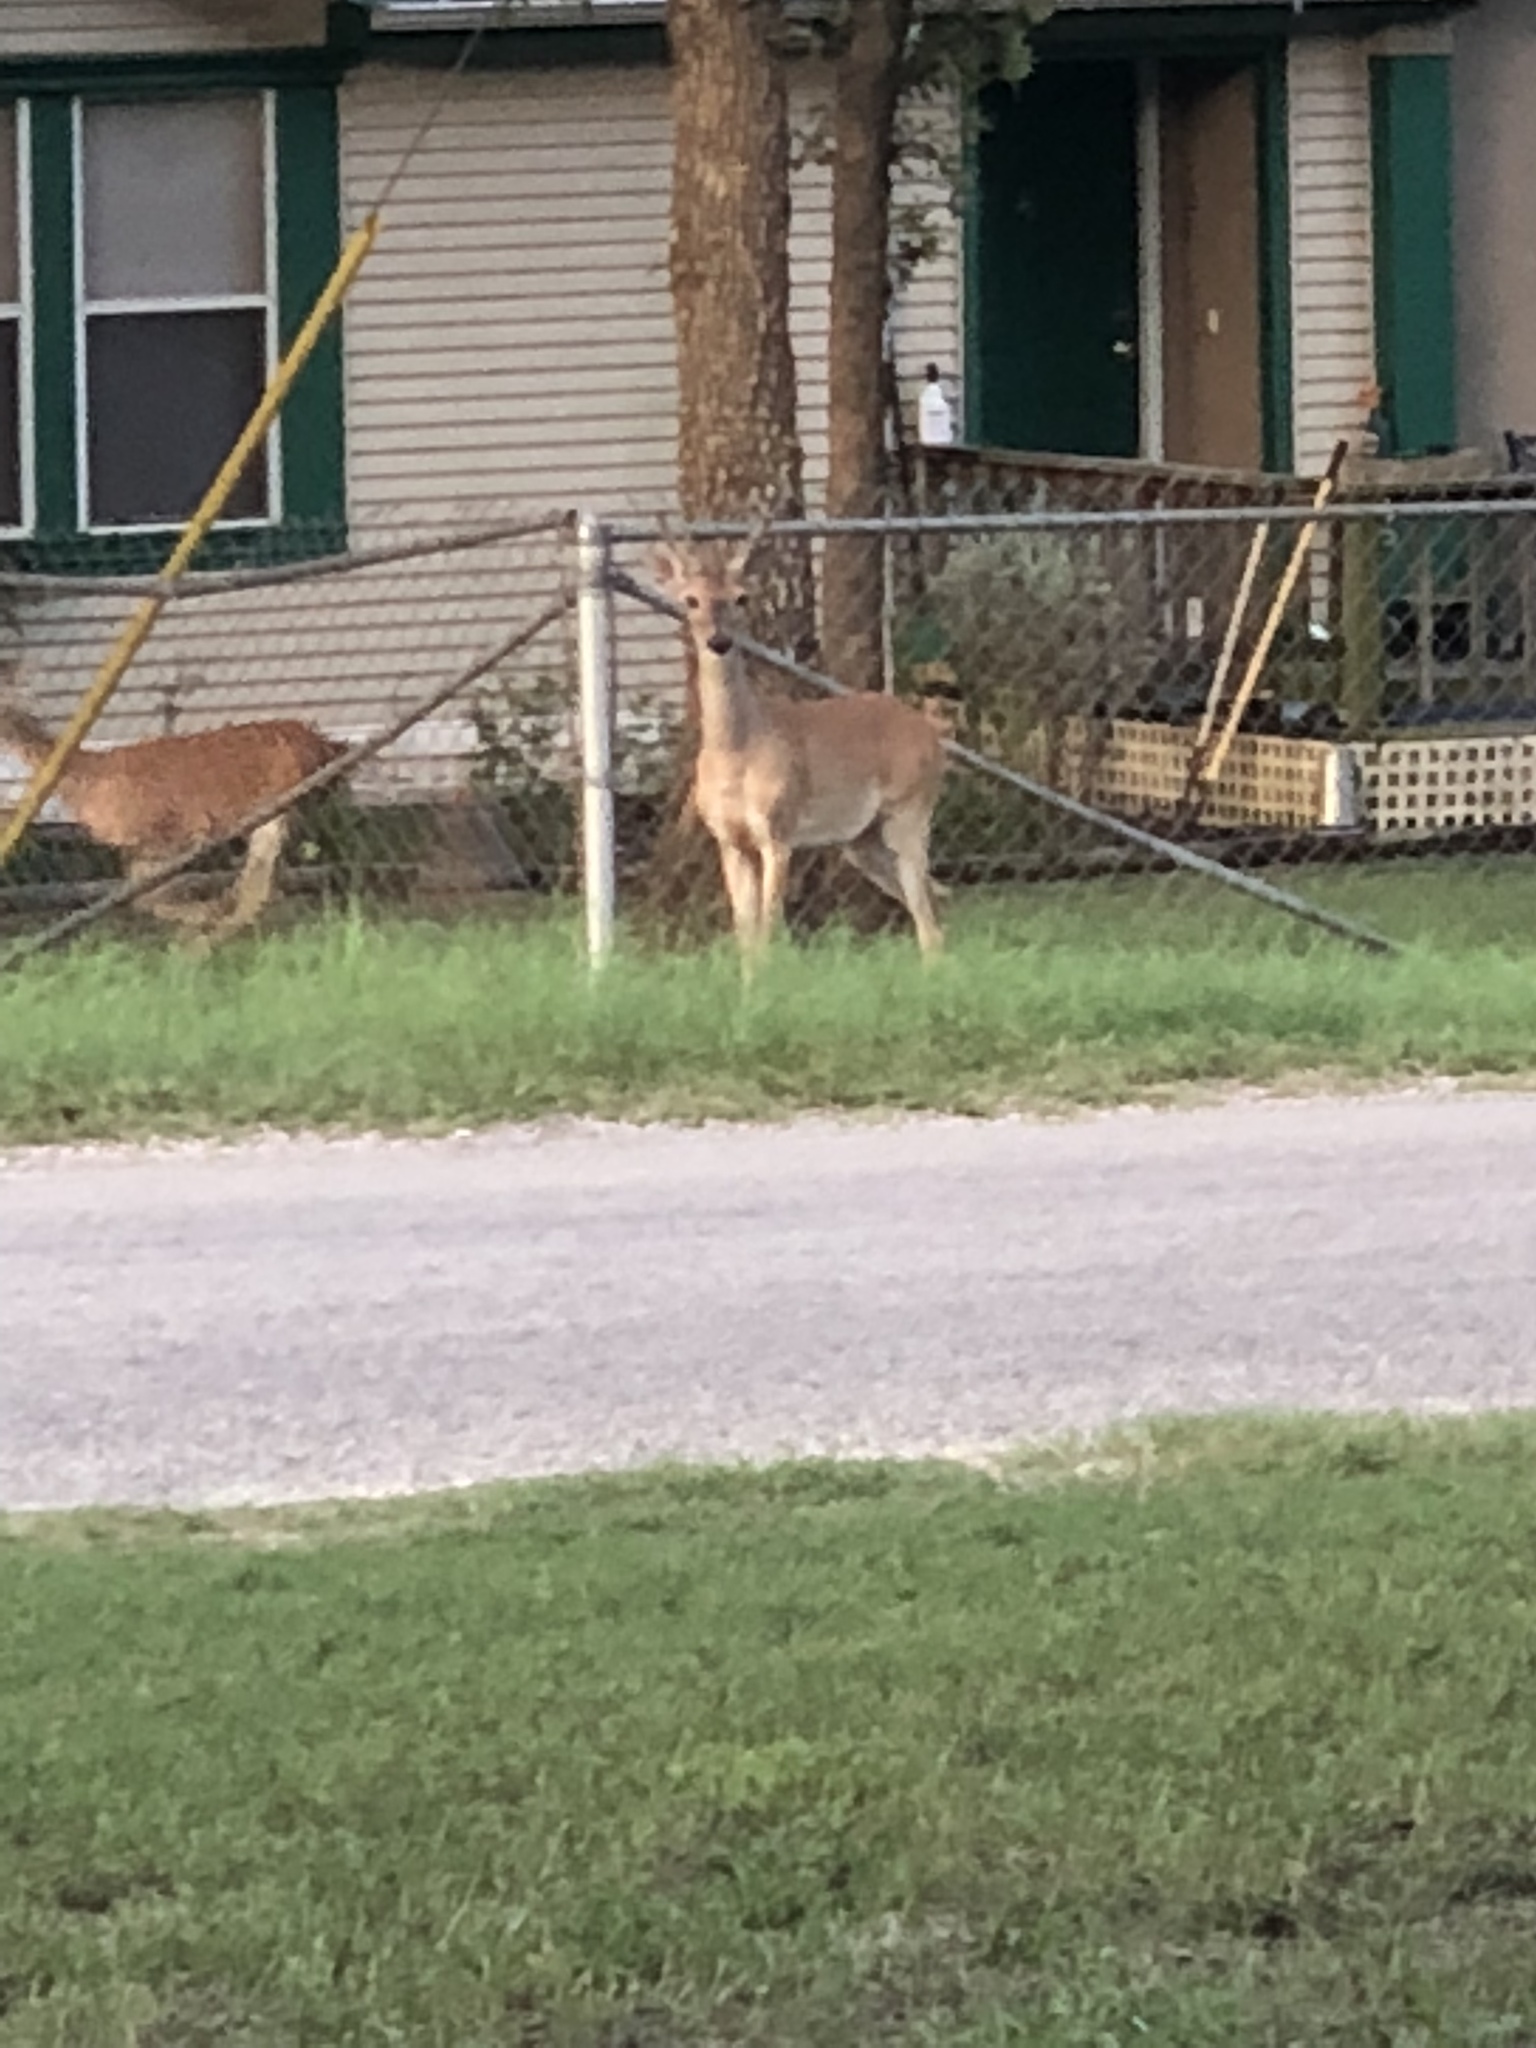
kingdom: Animalia
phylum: Chordata
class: Mammalia
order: Artiodactyla
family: Cervidae
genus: Odocoileus
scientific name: Odocoileus virginianus
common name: White-tailed deer
